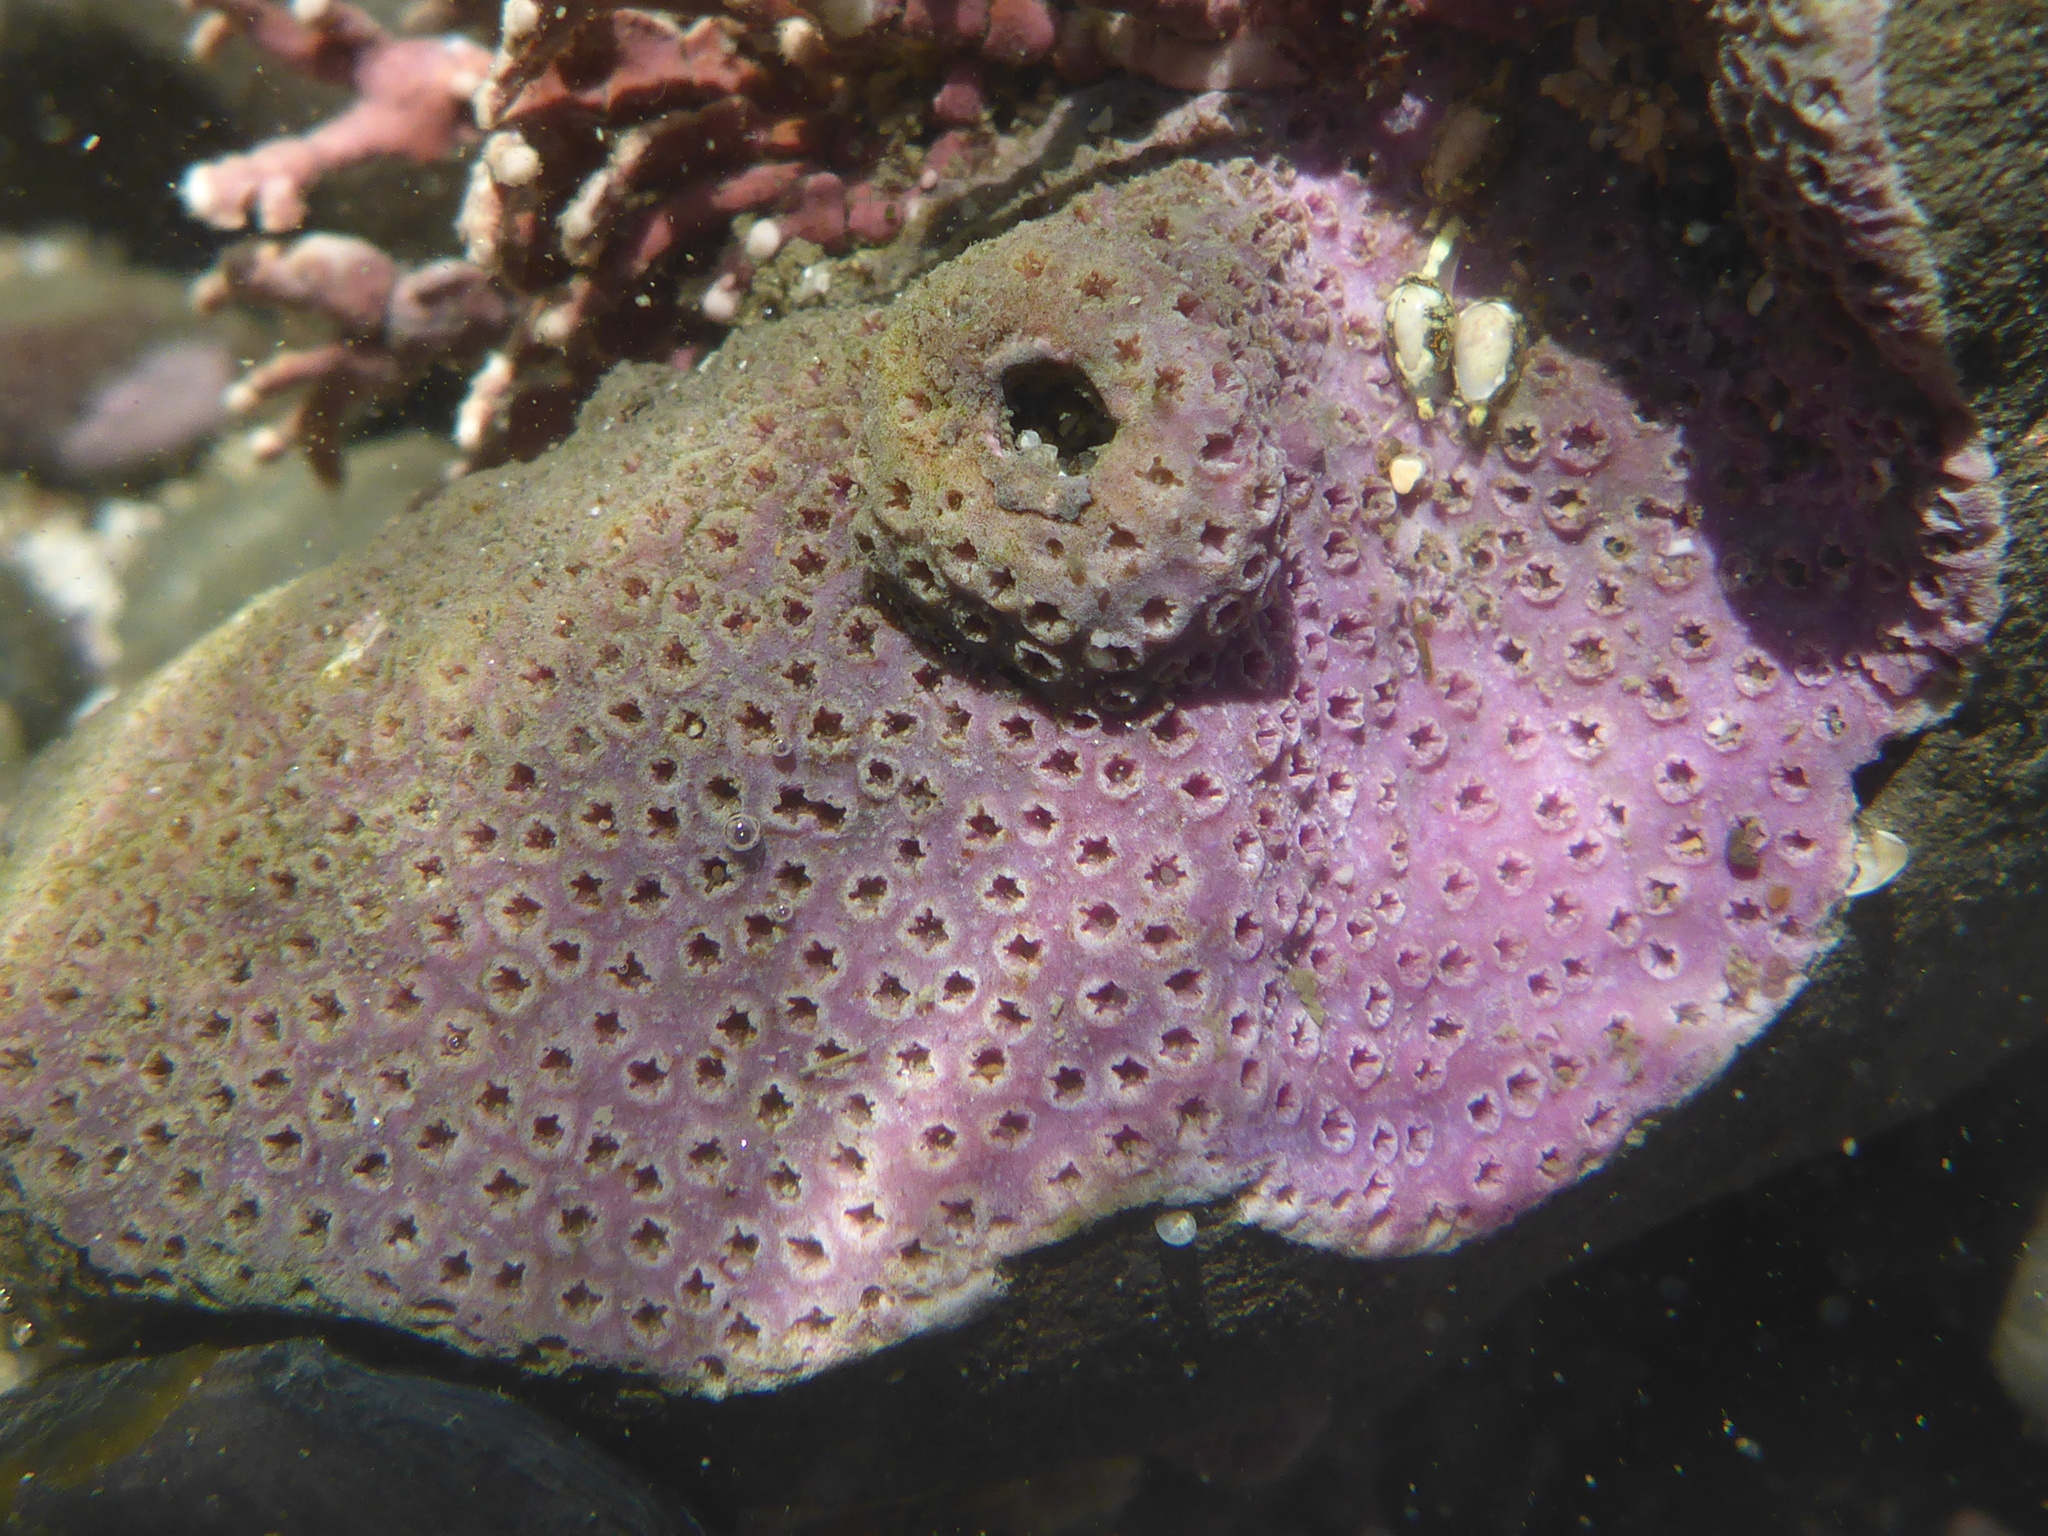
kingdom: Animalia
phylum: Cnidaria
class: Hydrozoa
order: Anthoathecata
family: Stylasteridae
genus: Stylantheca
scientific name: Stylantheca papillosa
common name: Corrugated lace hydrocoral
